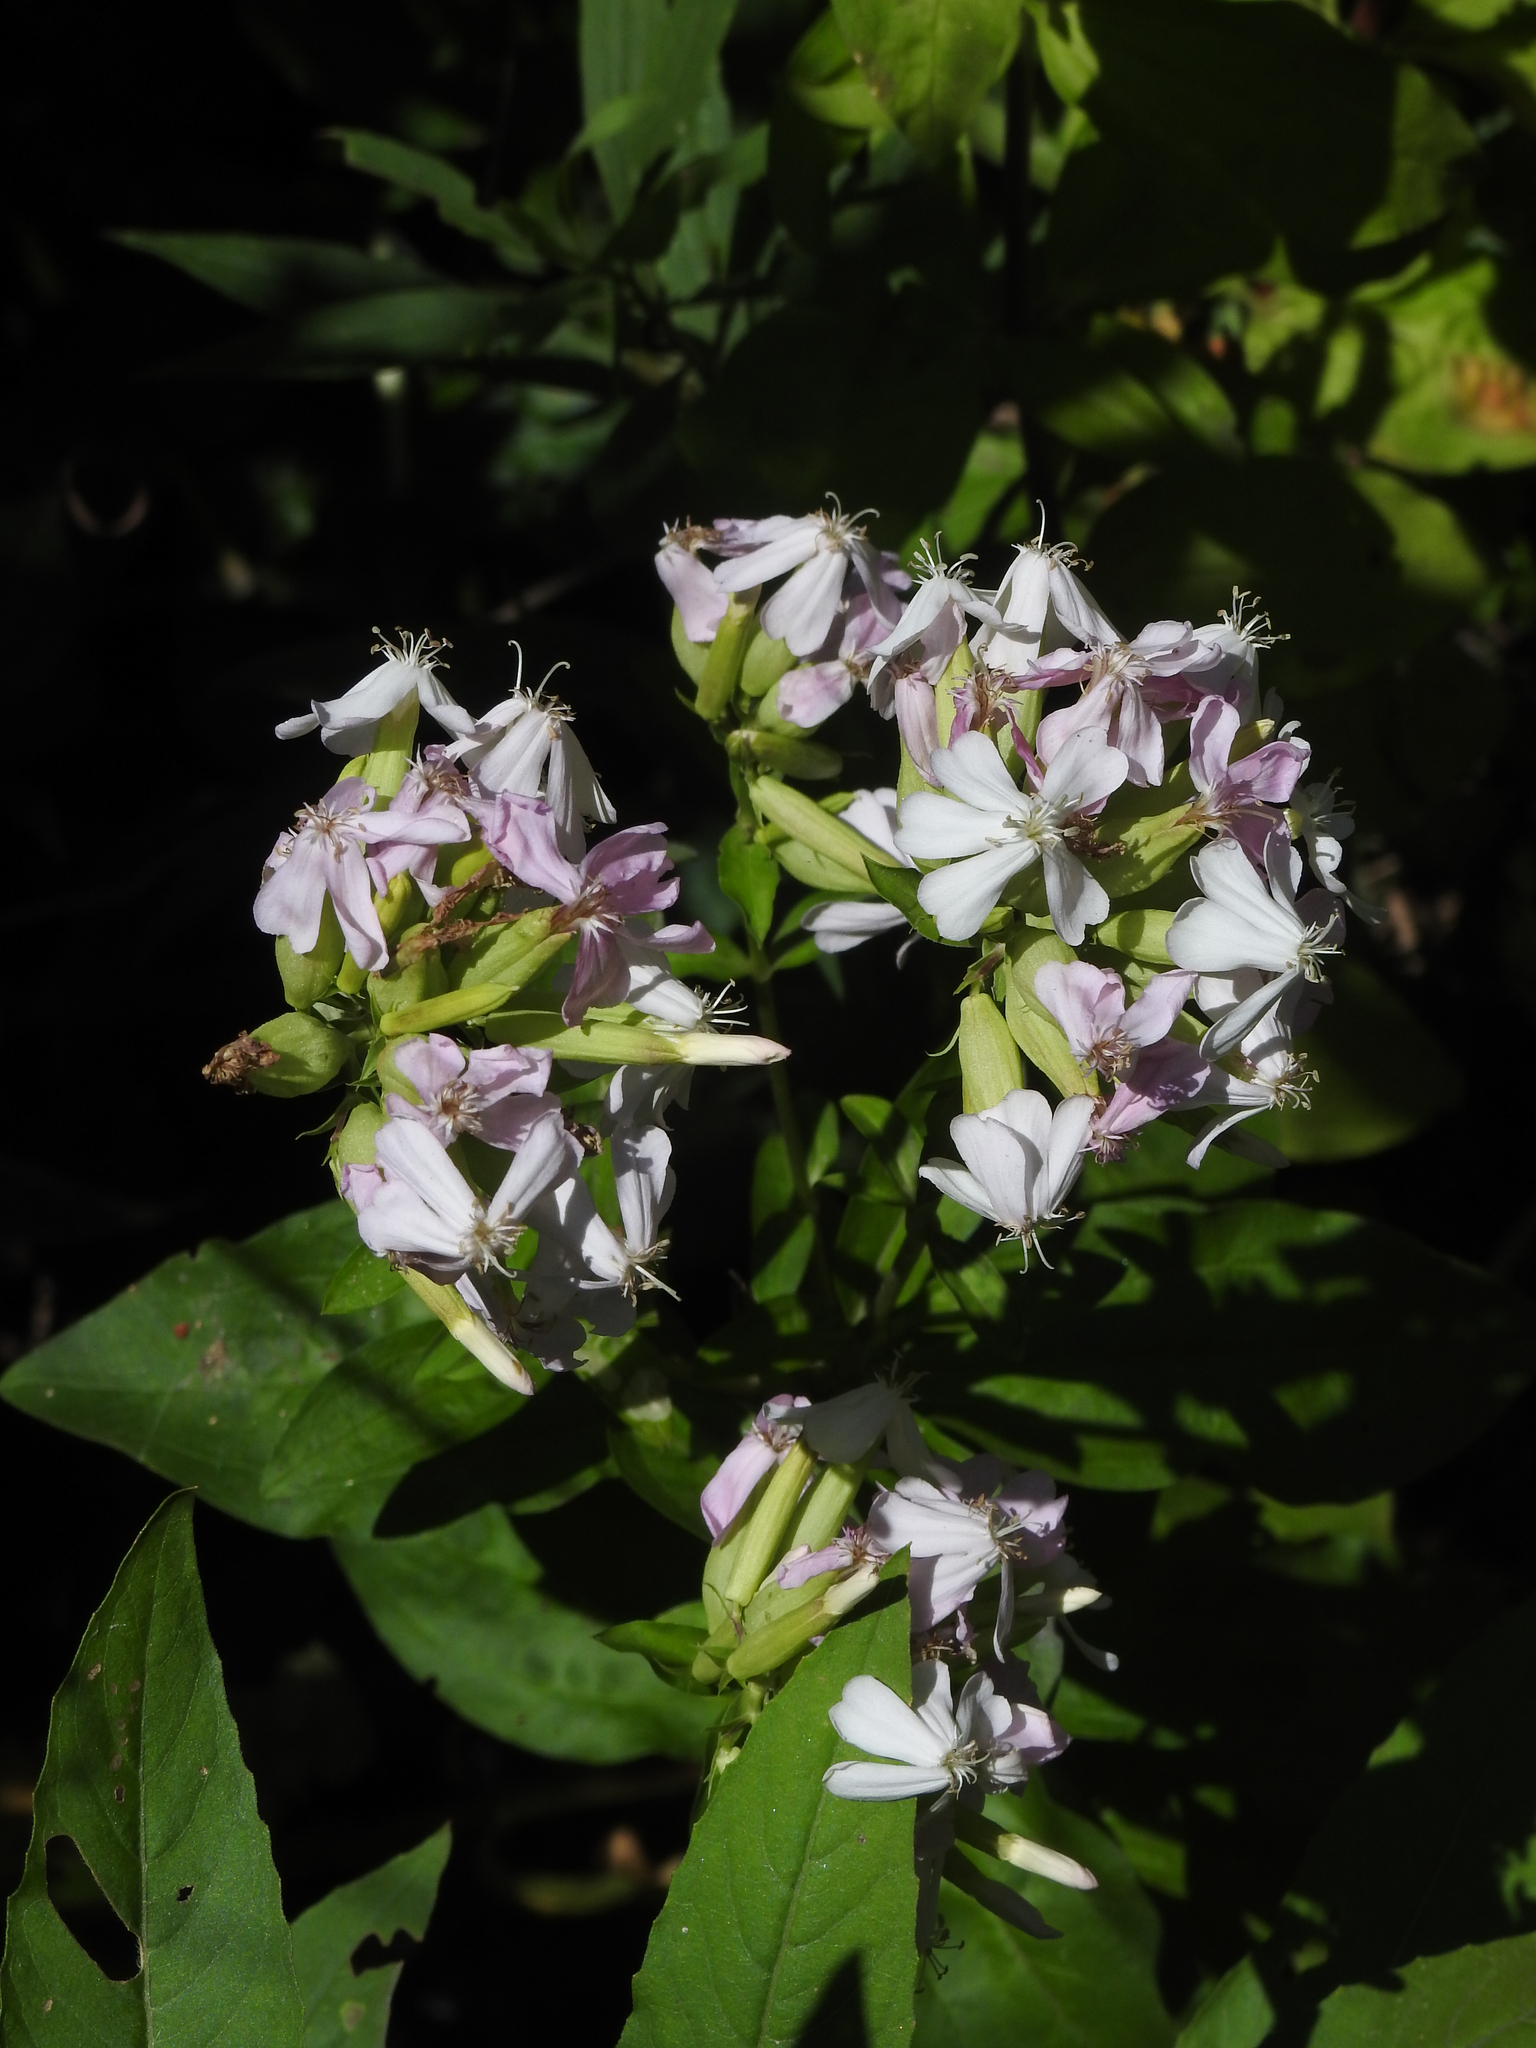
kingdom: Plantae
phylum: Tracheophyta
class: Magnoliopsida
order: Caryophyllales
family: Caryophyllaceae
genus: Saponaria
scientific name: Saponaria officinalis
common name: Soapwort
